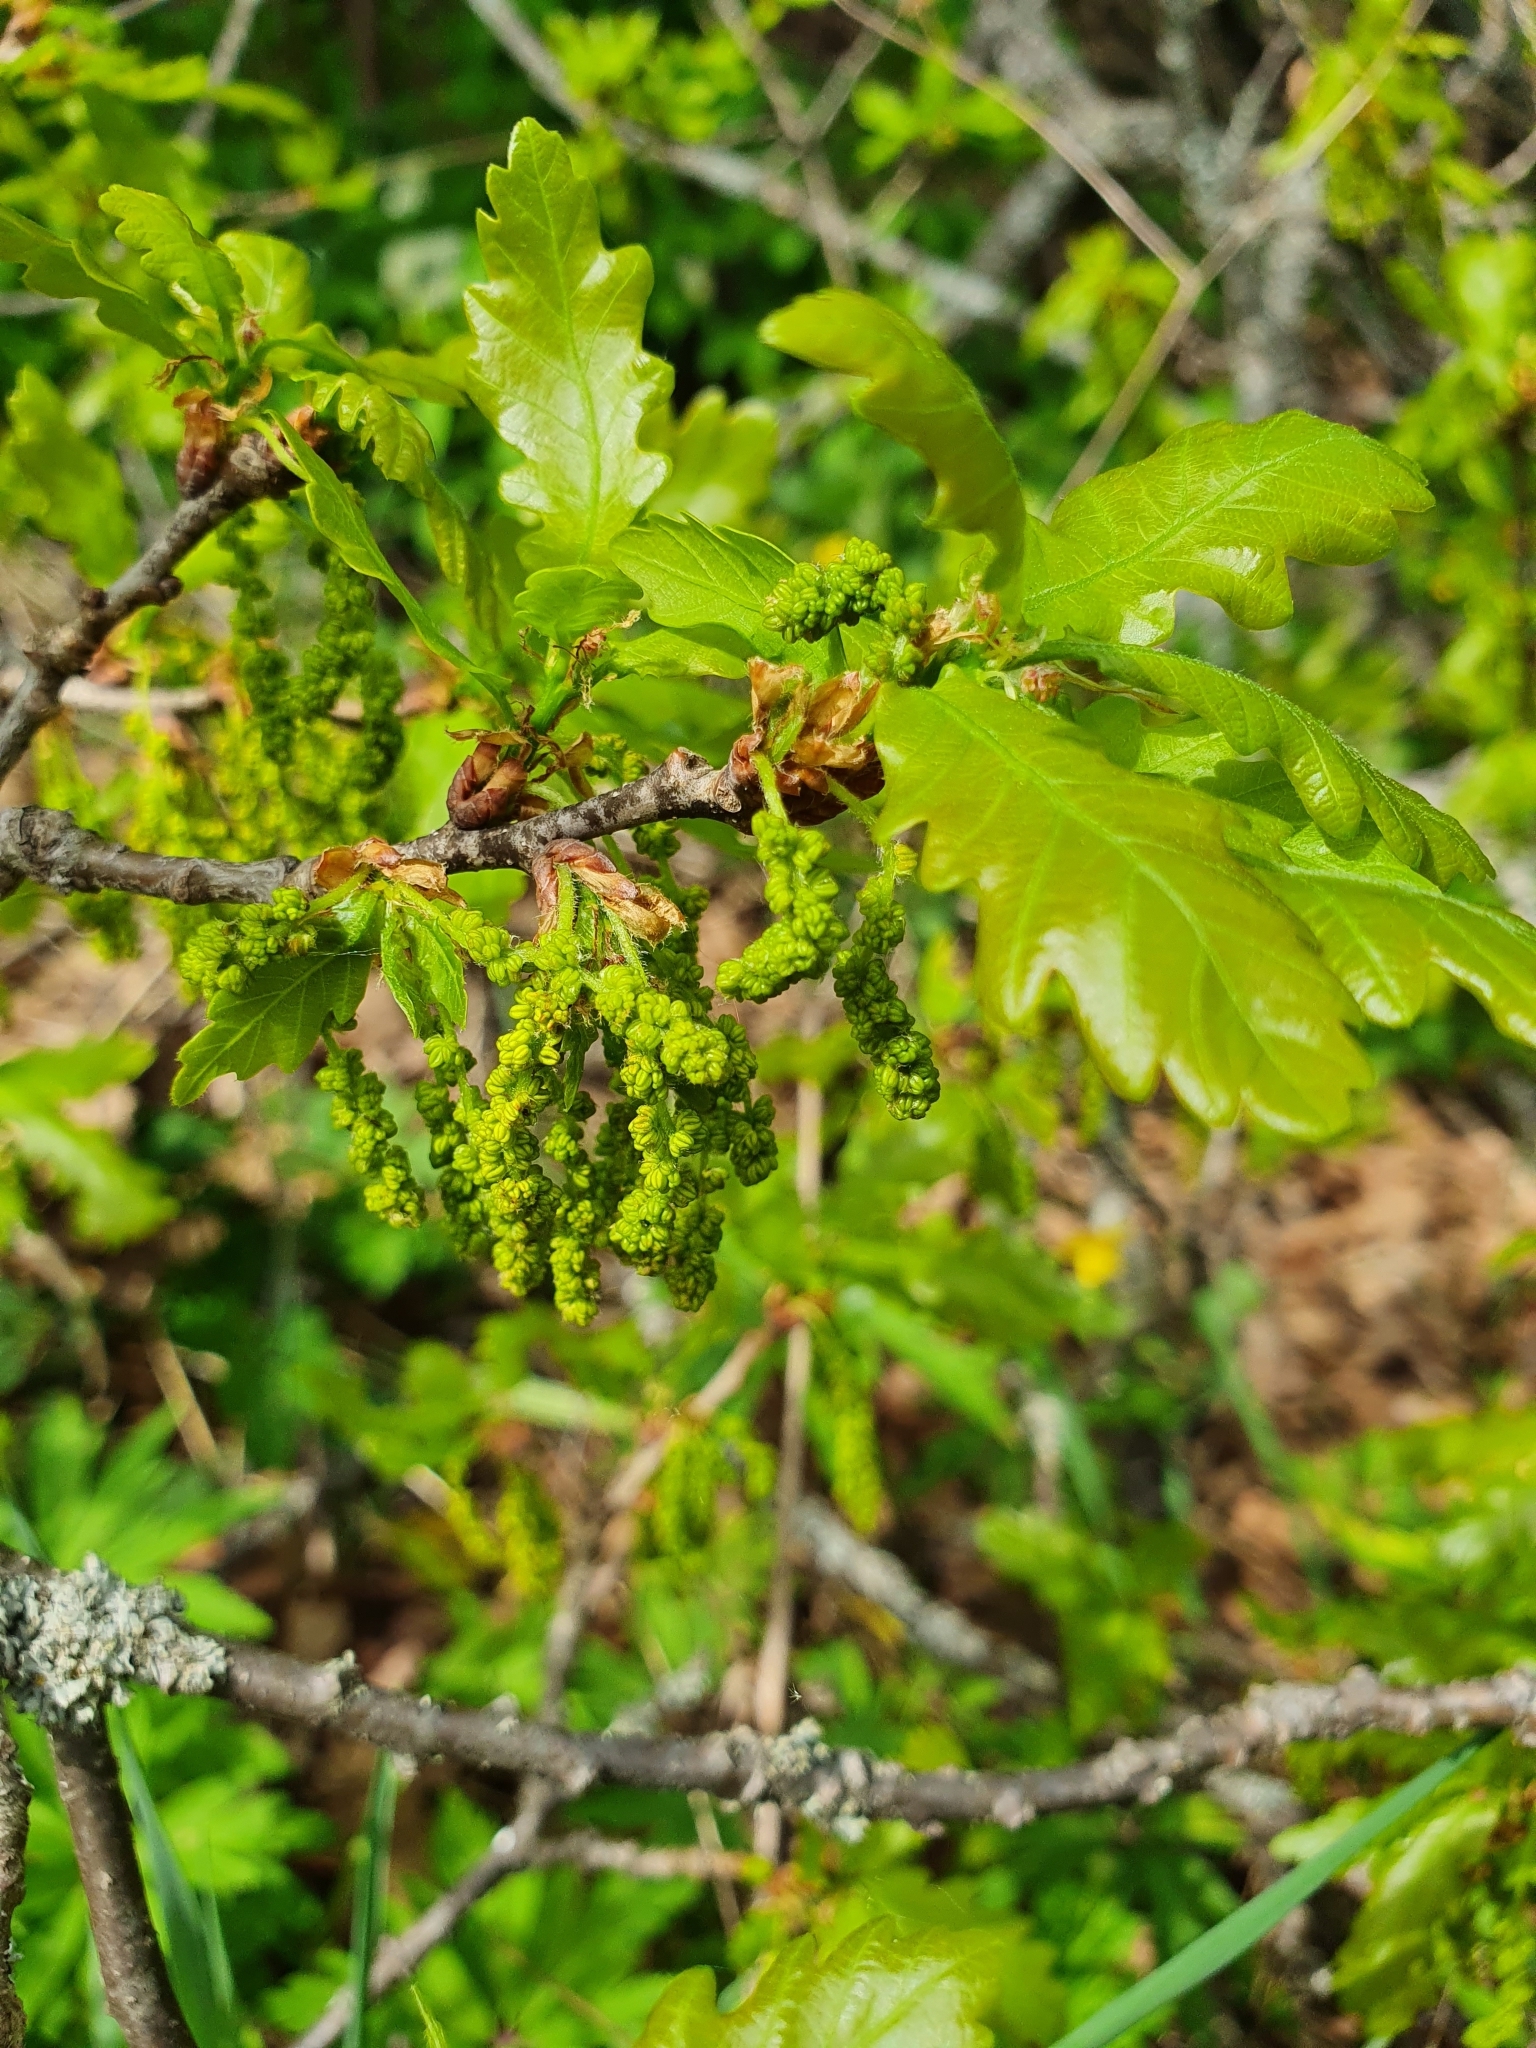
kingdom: Plantae
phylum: Tracheophyta
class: Magnoliopsida
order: Fagales
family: Fagaceae
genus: Quercus
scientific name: Quercus robur
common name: Pedunculate oak
